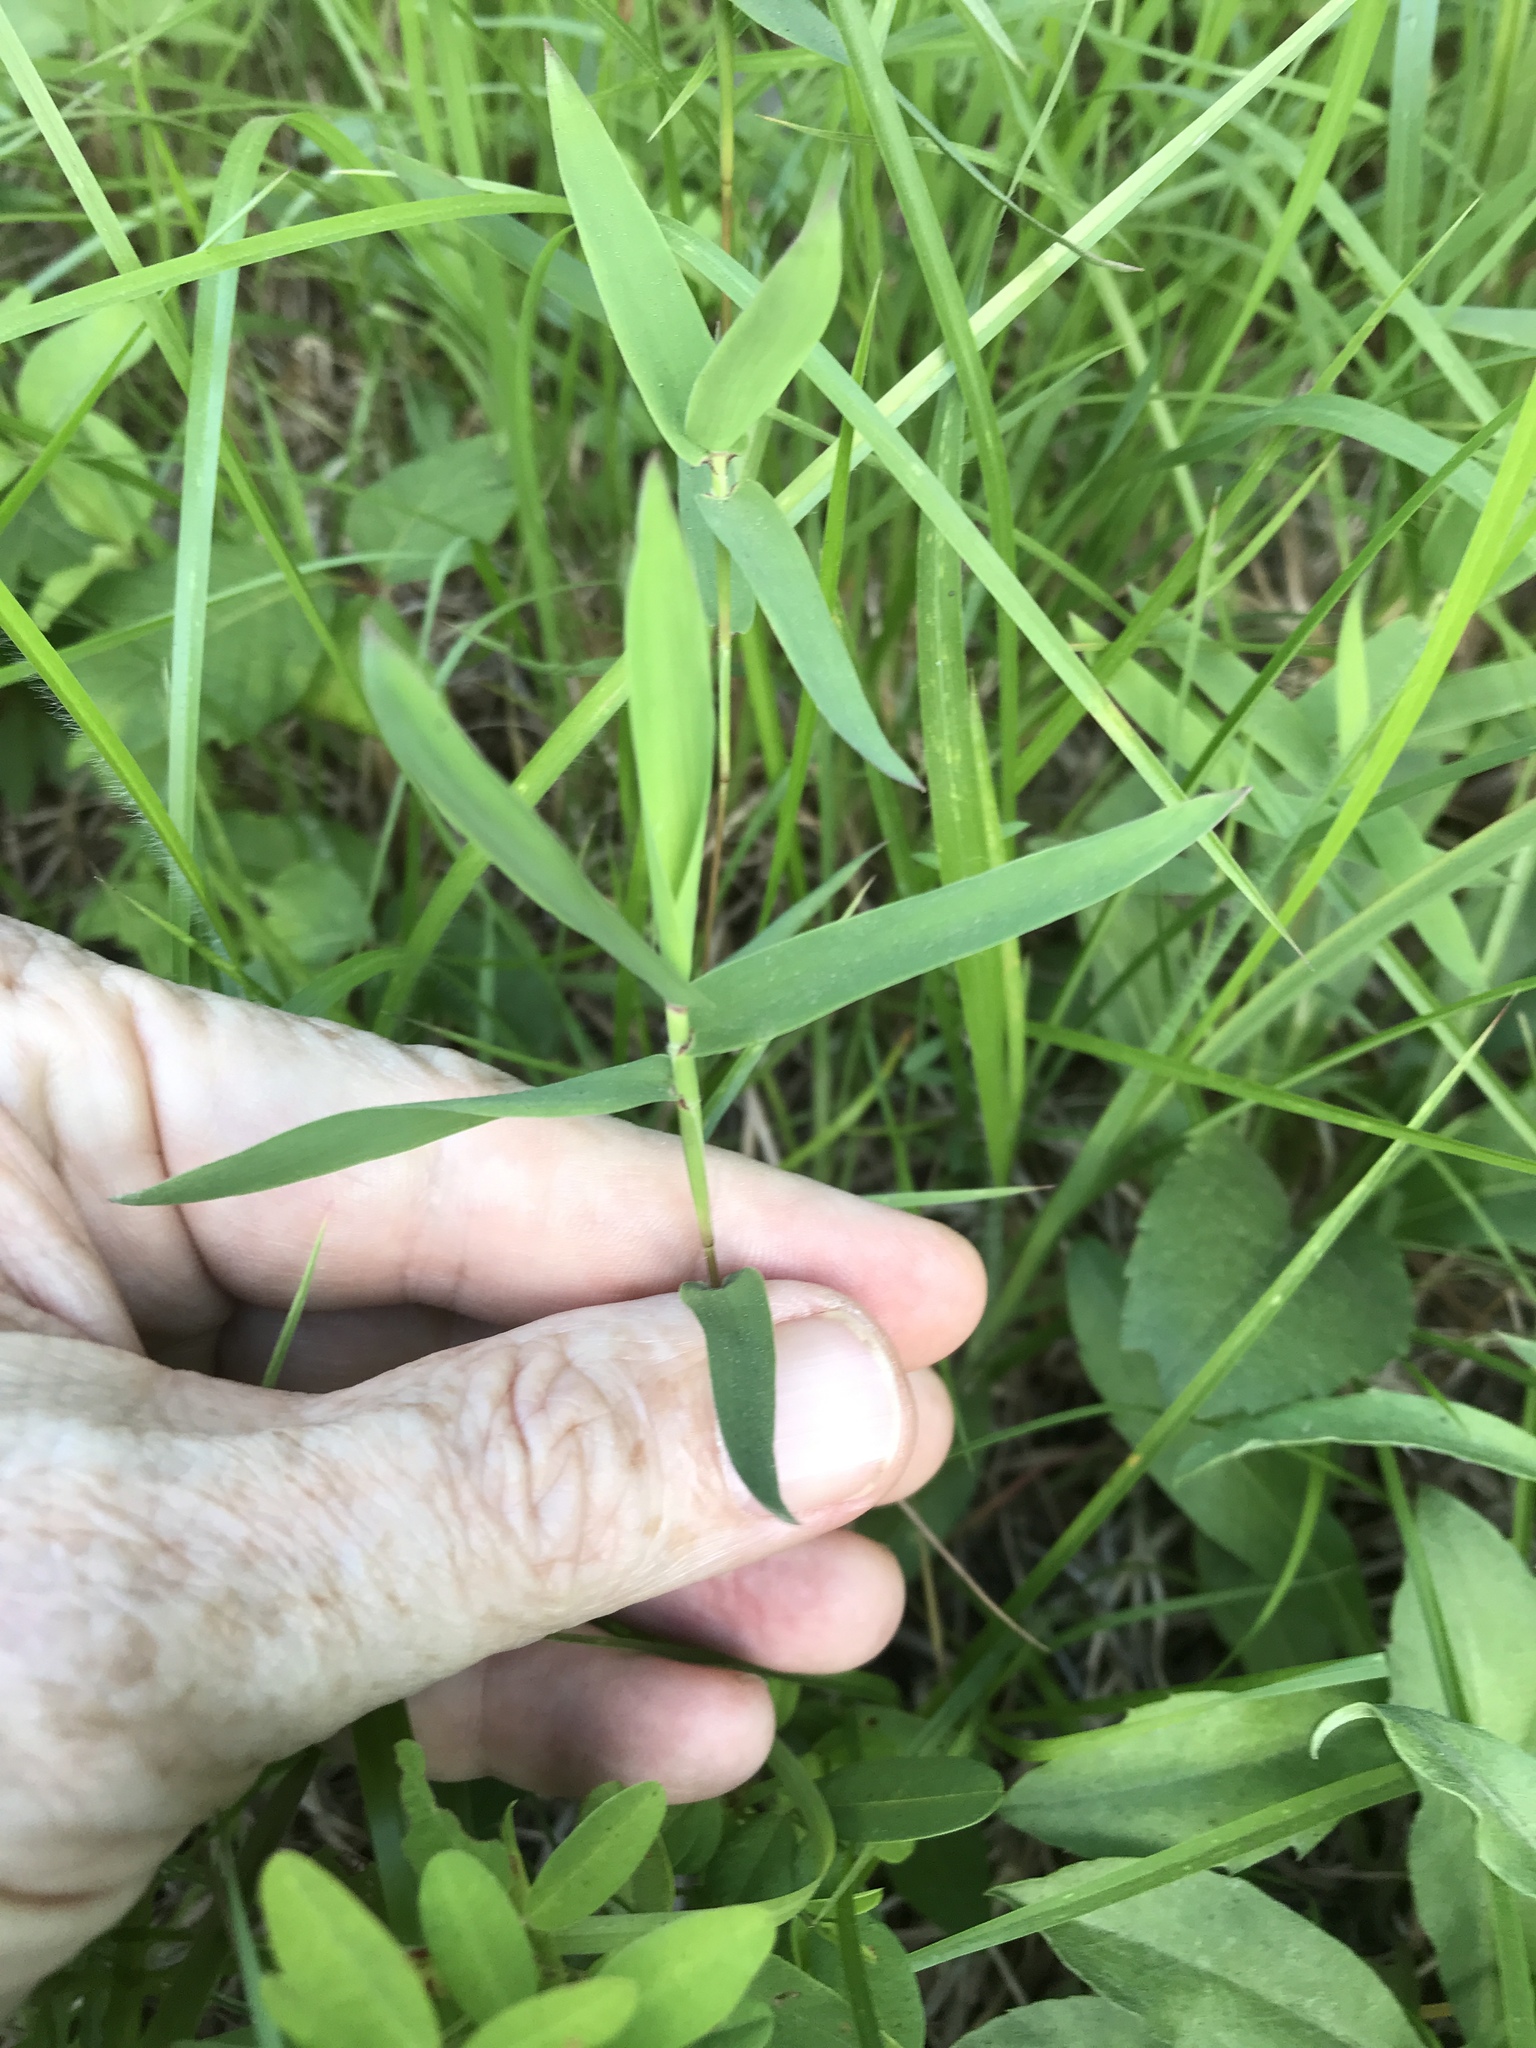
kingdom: Plantae
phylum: Tracheophyta
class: Liliopsida
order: Poales
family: Poaceae
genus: Gymnopogon
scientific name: Gymnopogon ambiguus
